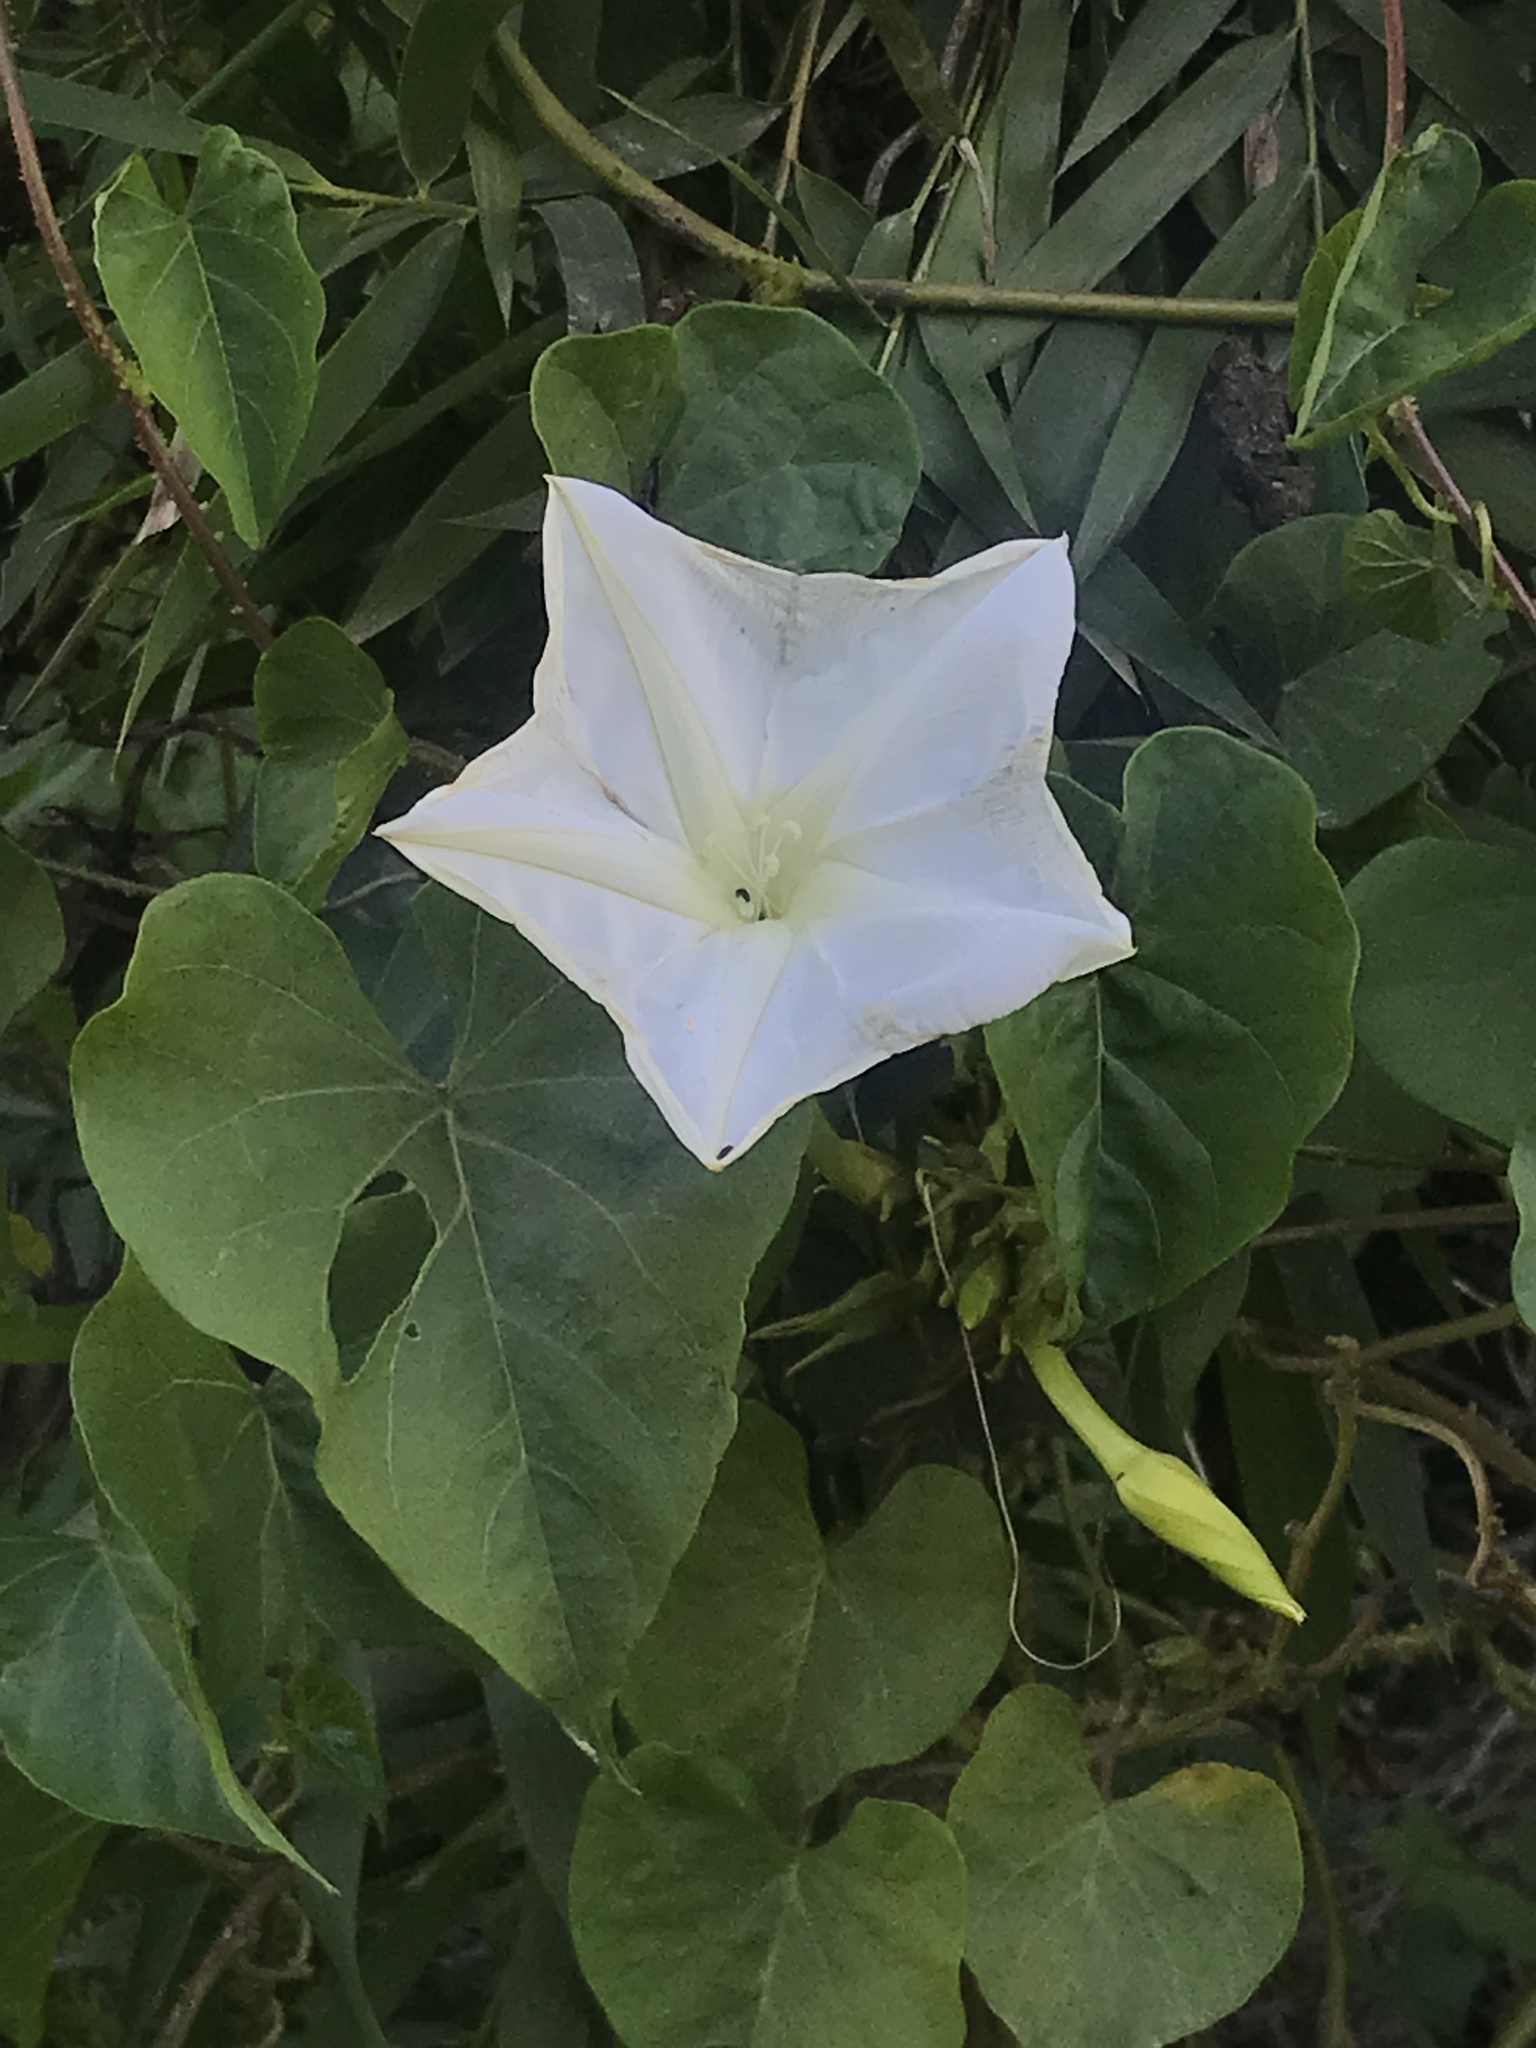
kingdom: Plantae
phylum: Tracheophyta
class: Magnoliopsida
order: Solanales
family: Convolvulaceae
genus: Ipomoea
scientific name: Ipomoea alba
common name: Moonflower
